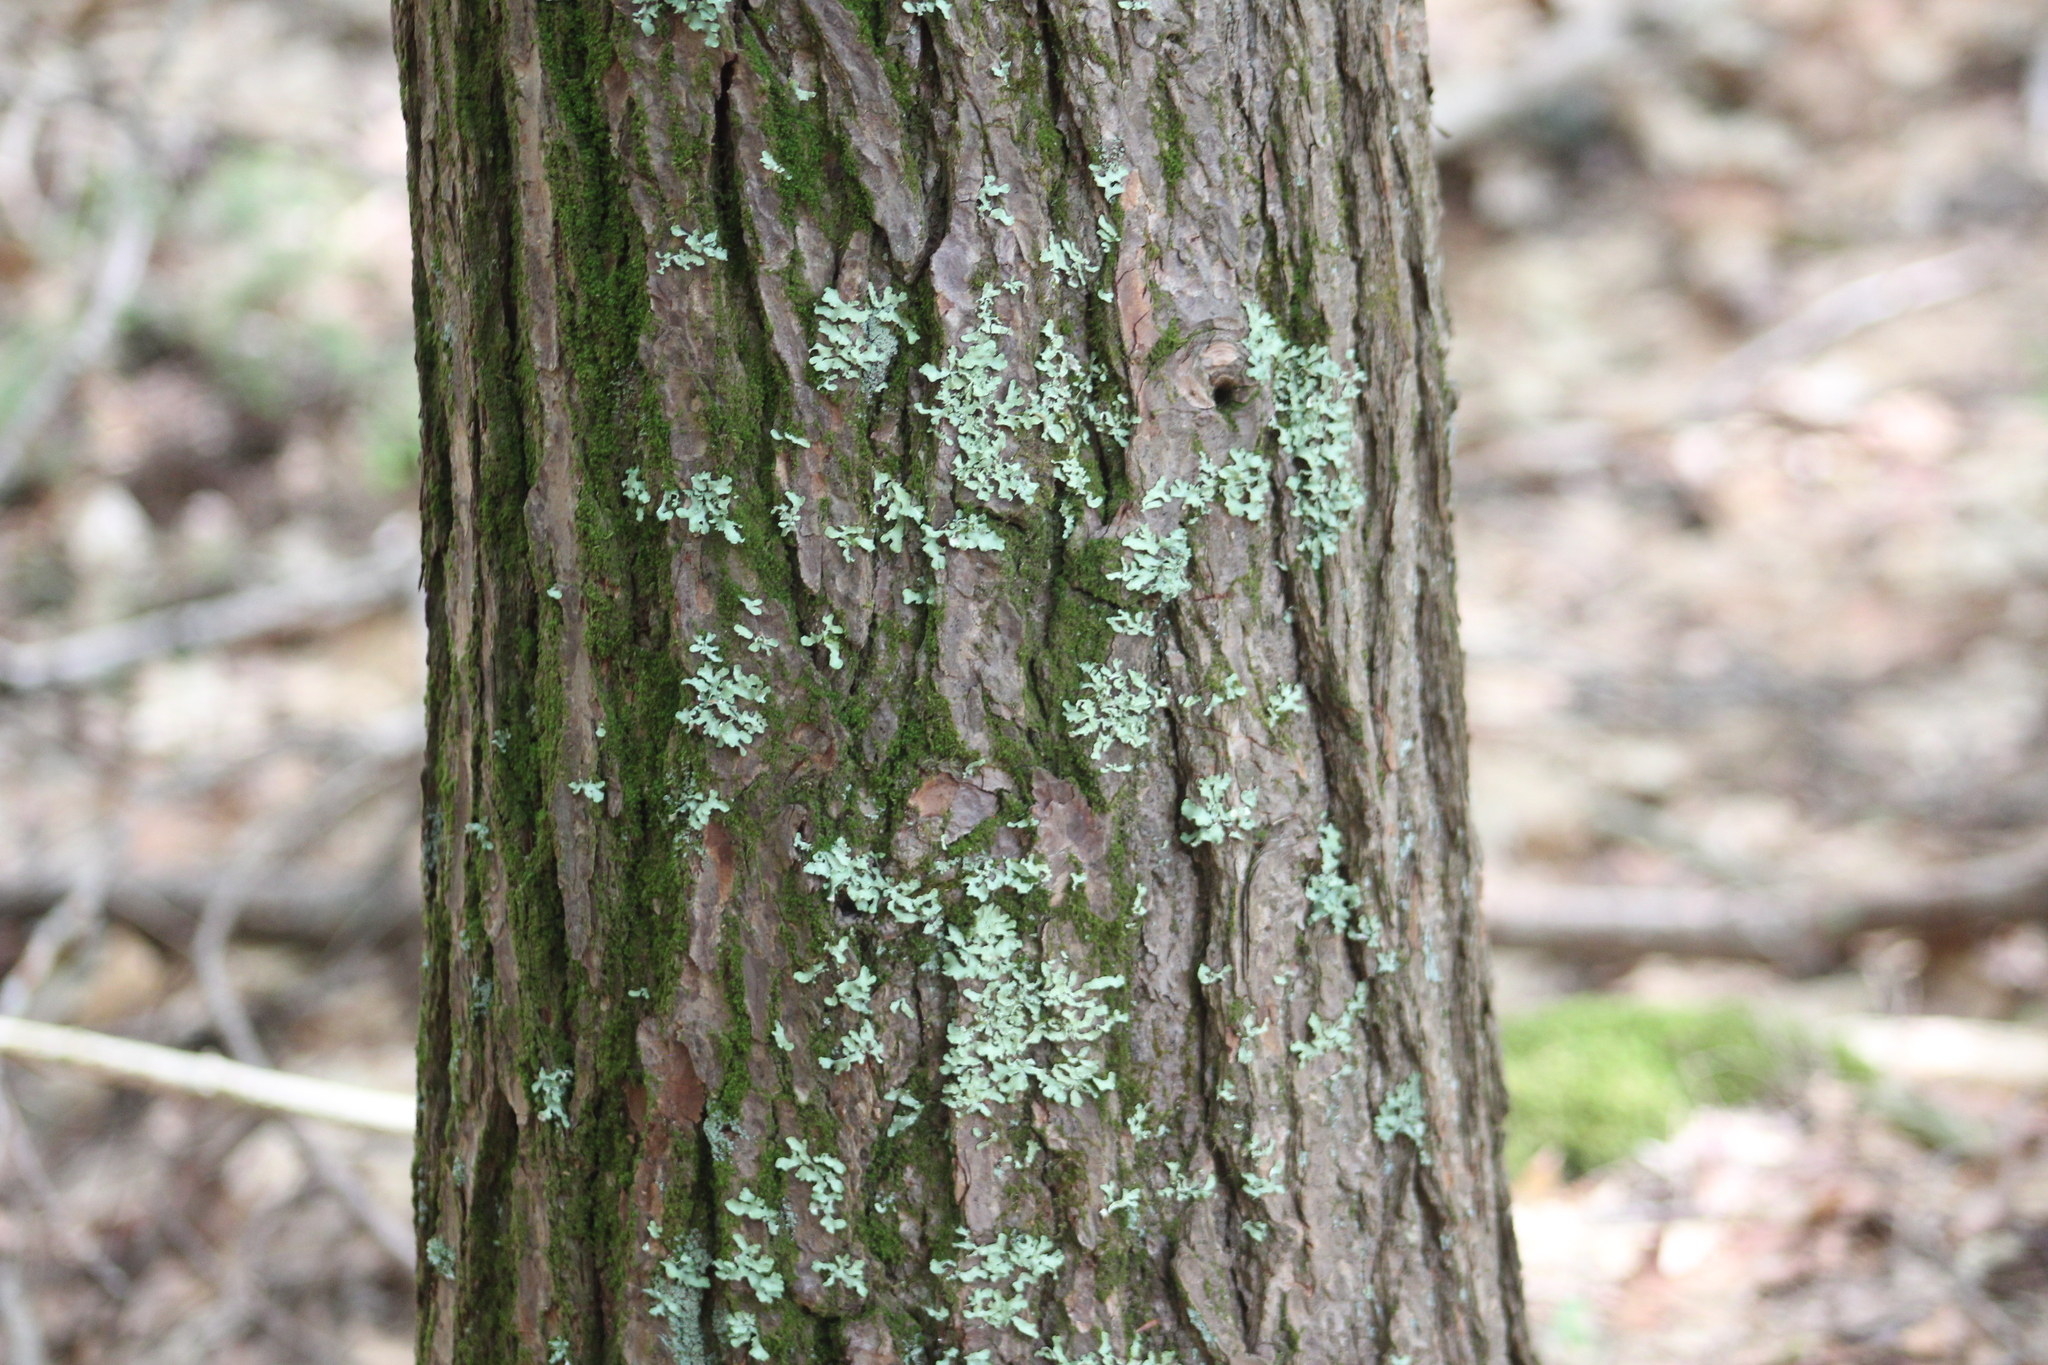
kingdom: Plantae
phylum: Tracheophyta
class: Pinopsida
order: Pinales
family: Pinaceae
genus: Tsuga
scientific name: Tsuga canadensis
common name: Eastern hemlock
